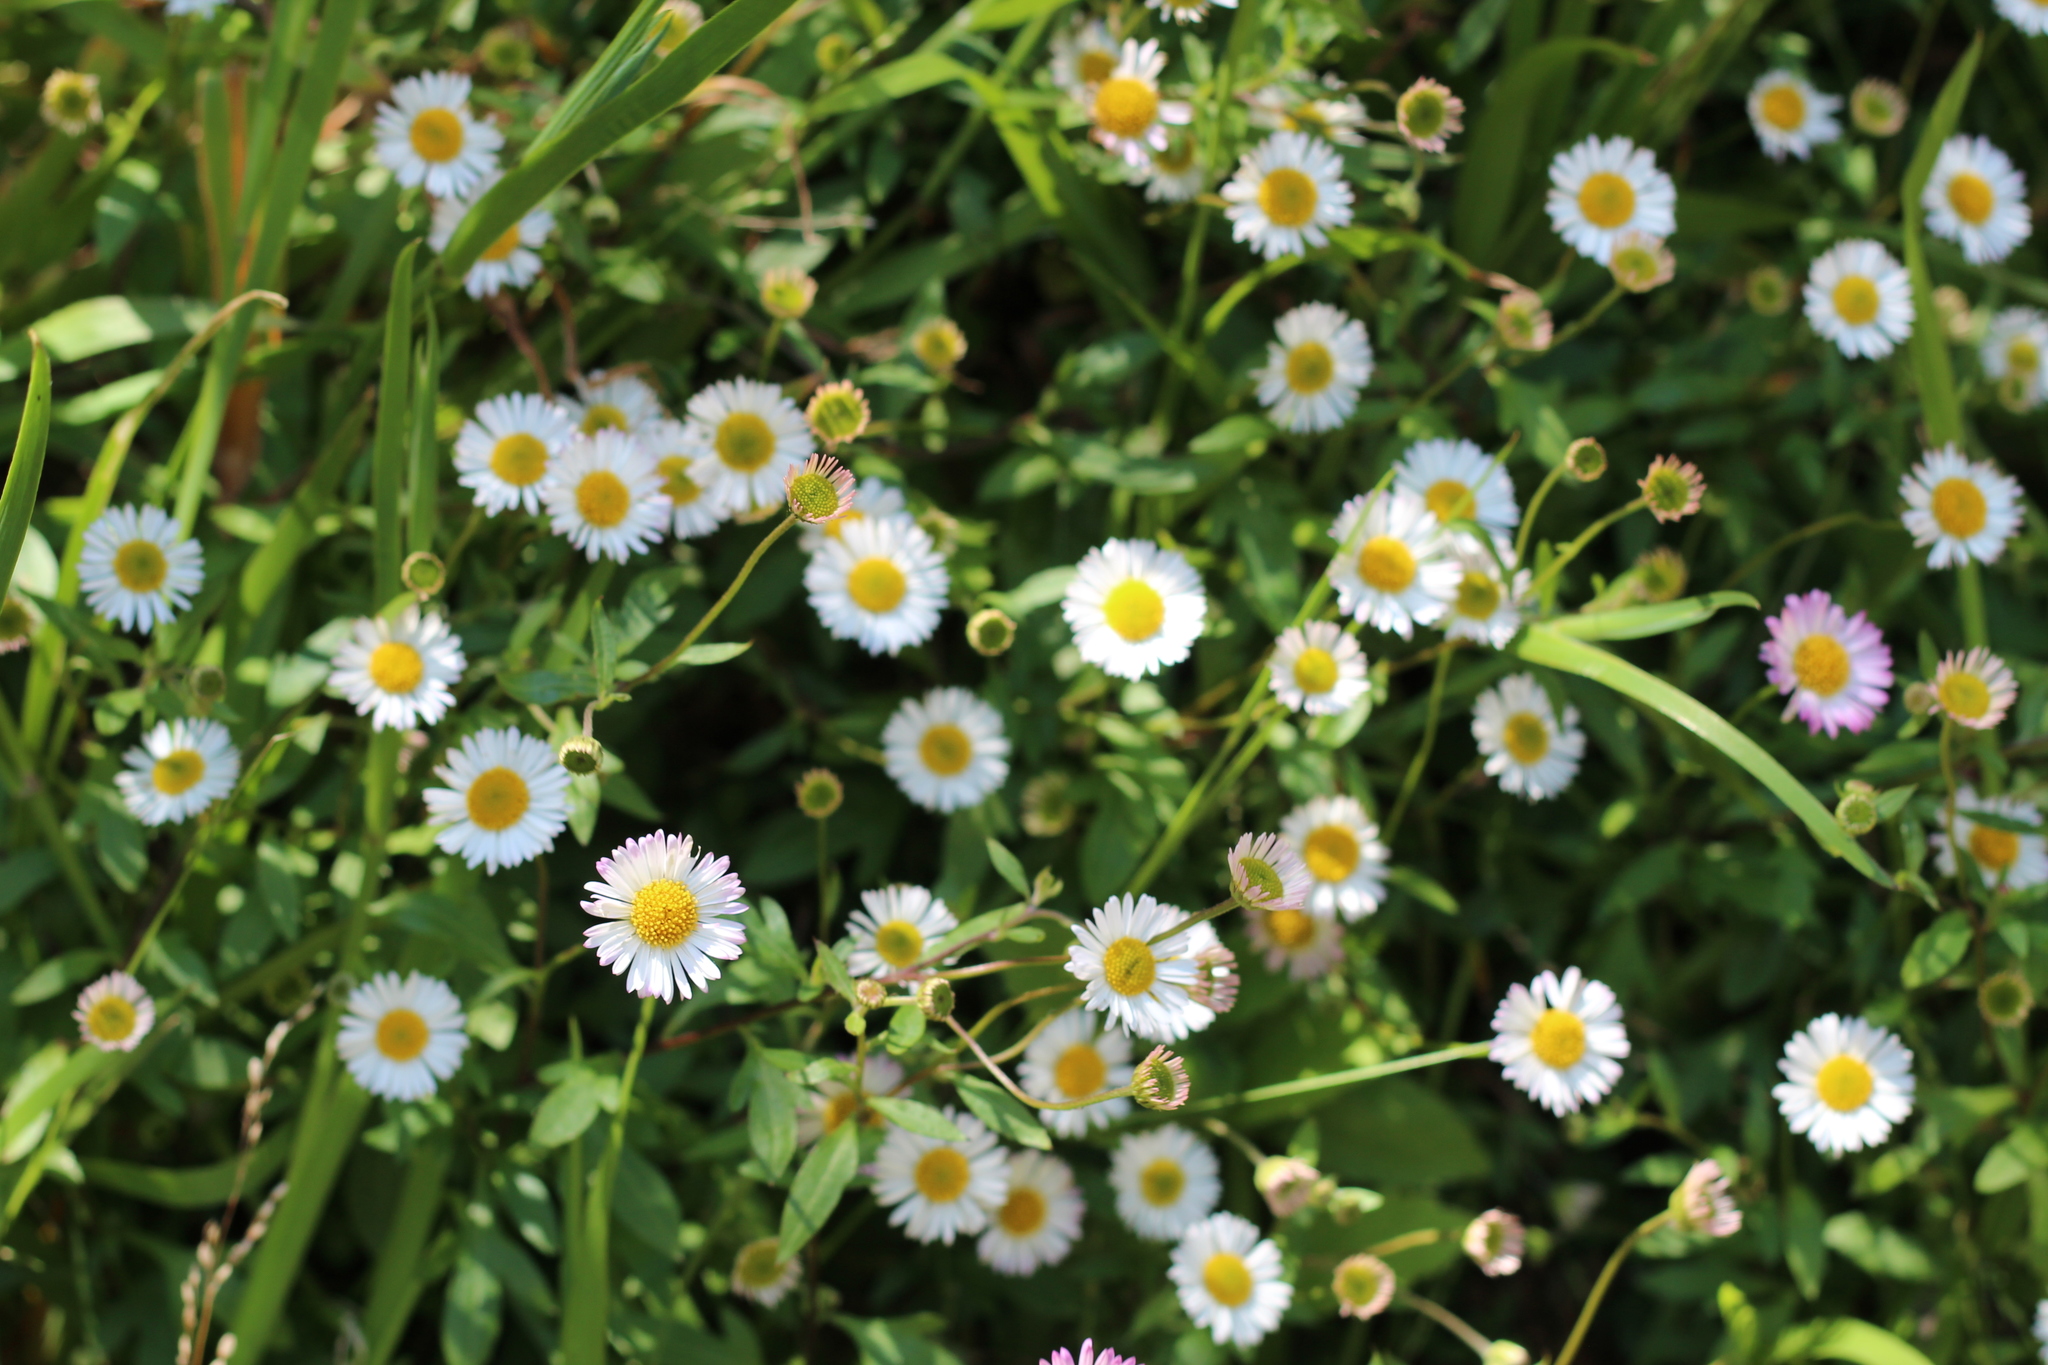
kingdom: Plantae
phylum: Tracheophyta
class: Magnoliopsida
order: Asterales
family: Asteraceae
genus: Erigeron
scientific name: Erigeron karvinskianus
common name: Mexican fleabane
